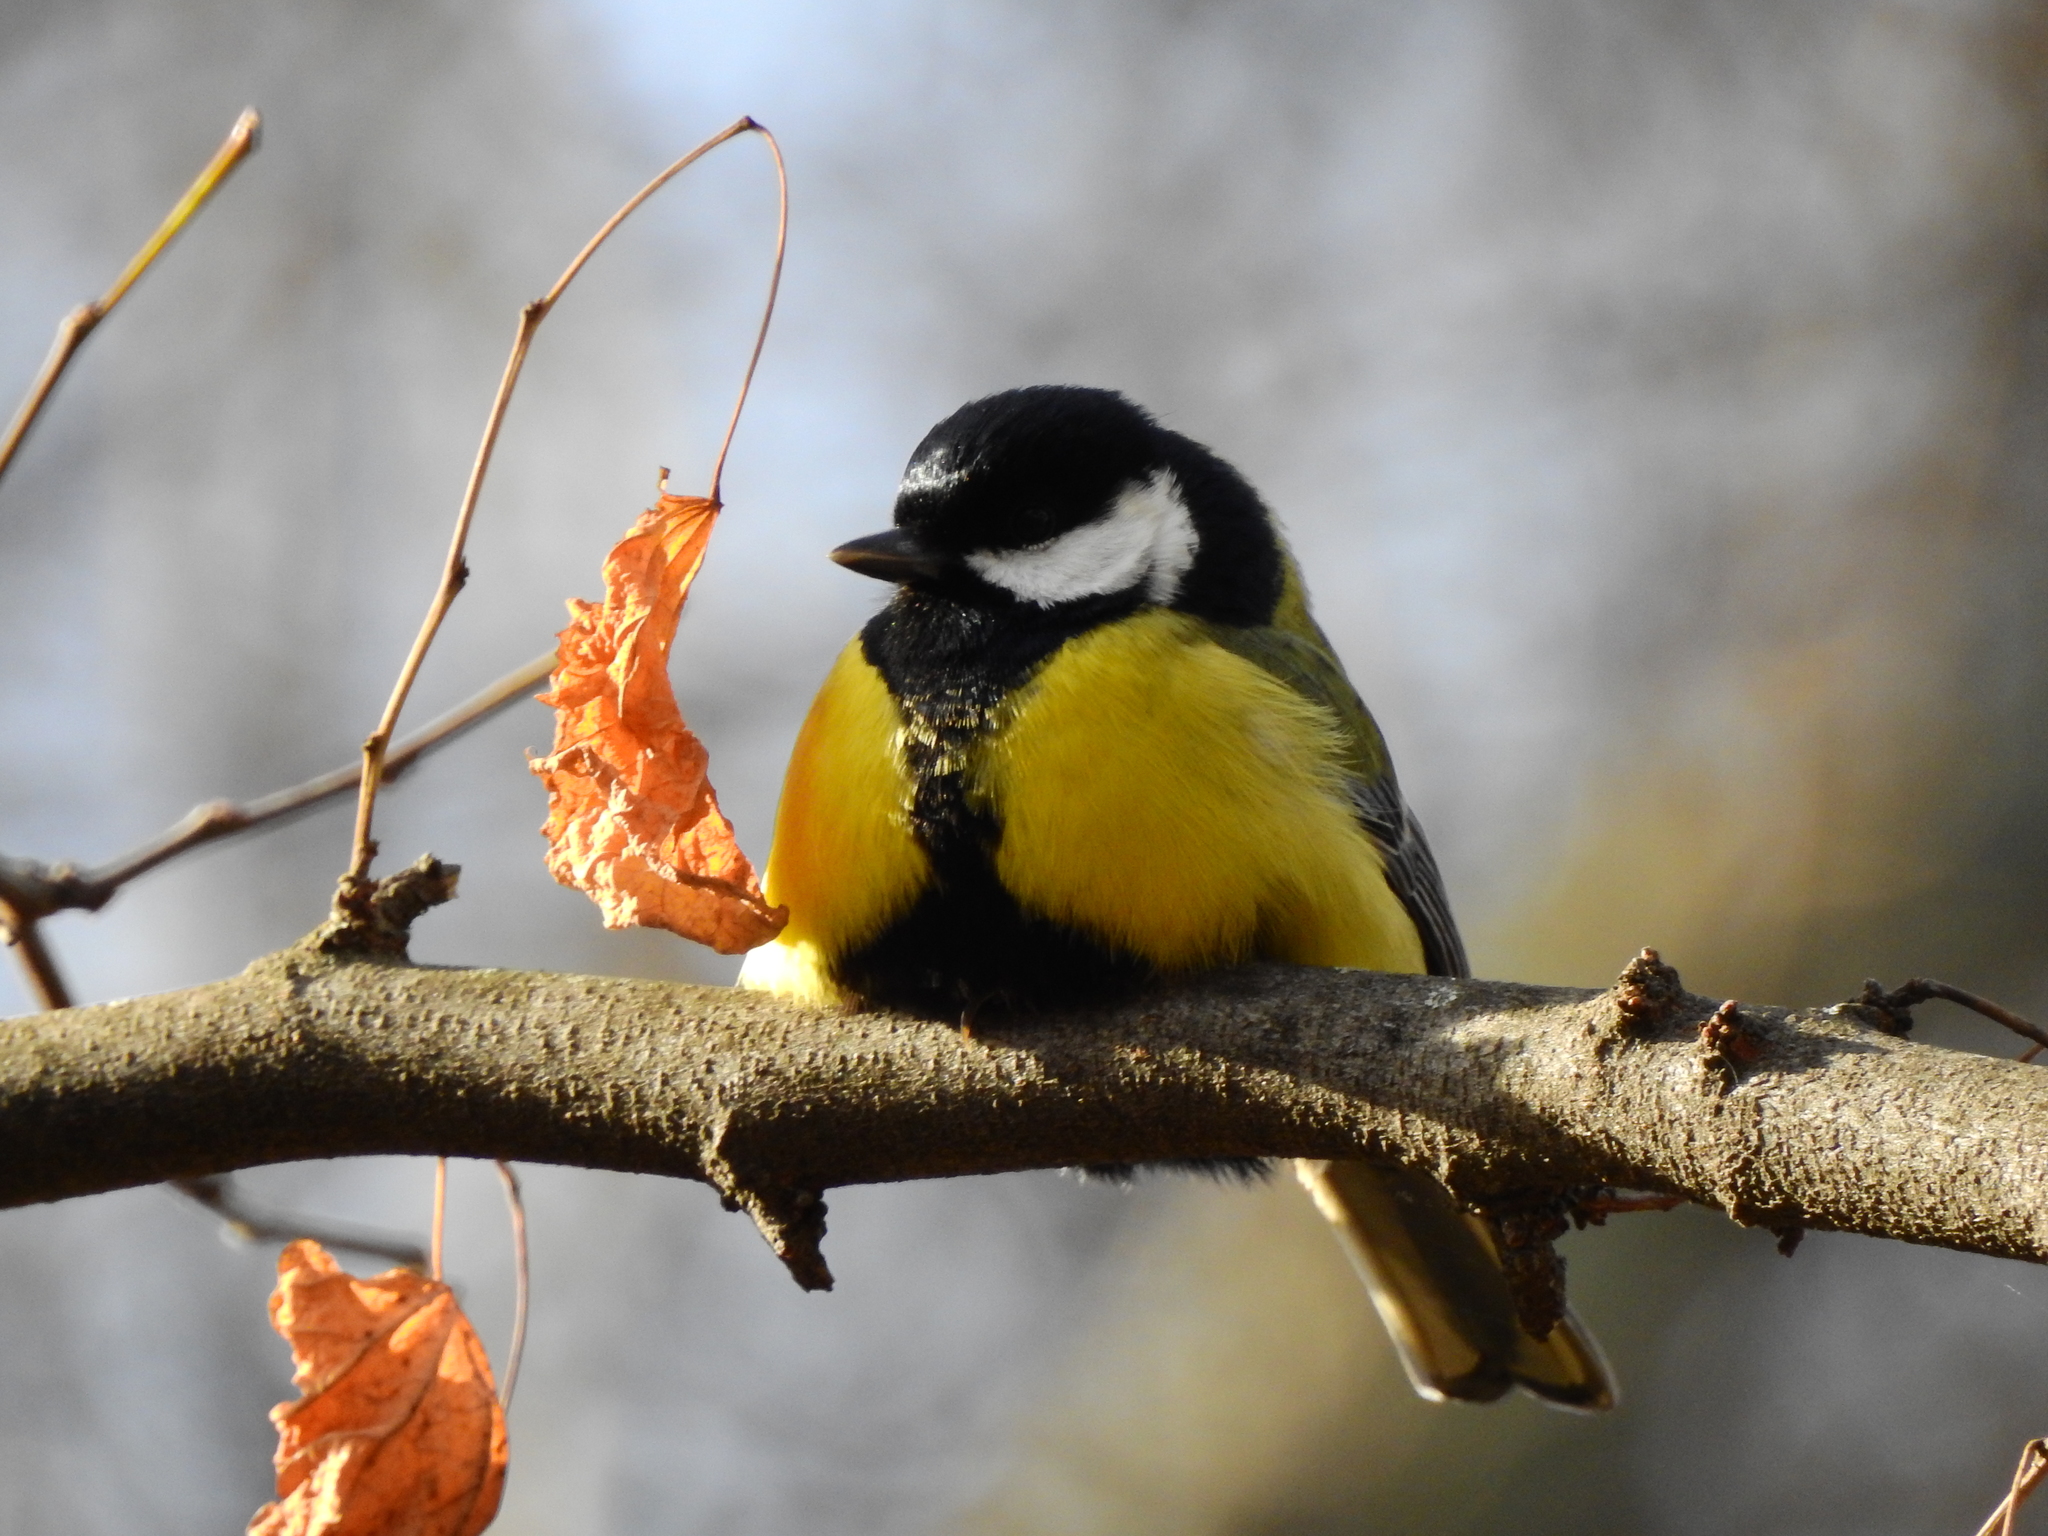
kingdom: Animalia
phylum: Chordata
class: Aves
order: Passeriformes
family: Paridae
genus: Parus
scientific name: Parus major
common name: Great tit
